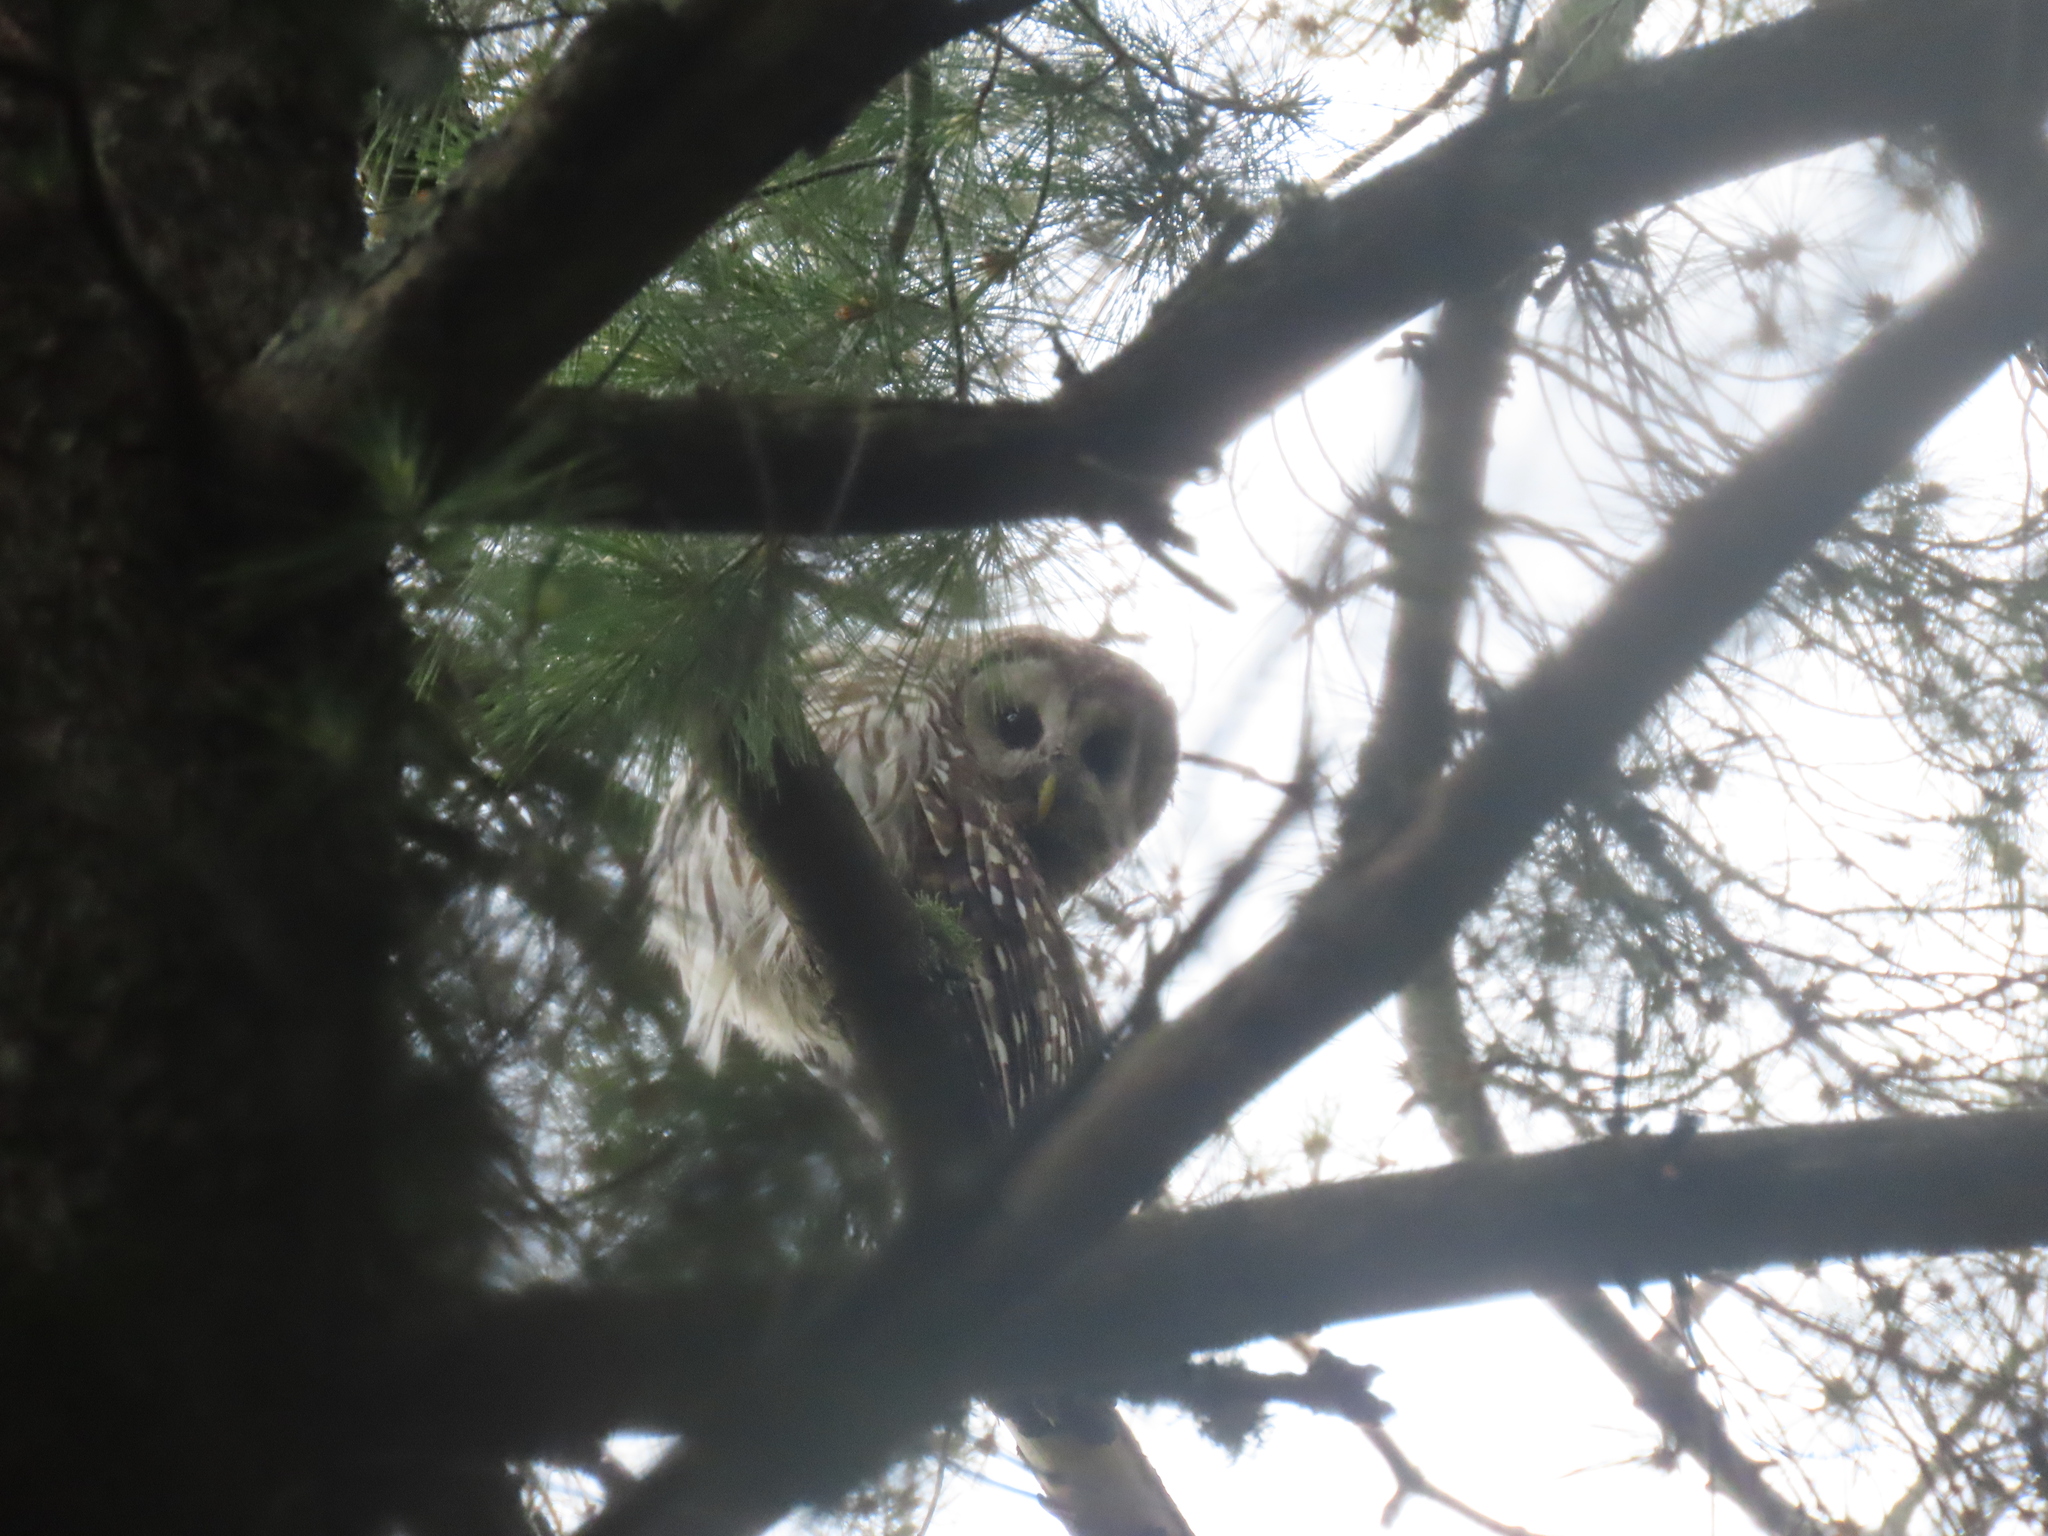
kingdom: Animalia
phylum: Chordata
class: Aves
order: Strigiformes
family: Strigidae
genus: Strix
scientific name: Strix varia
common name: Barred owl
